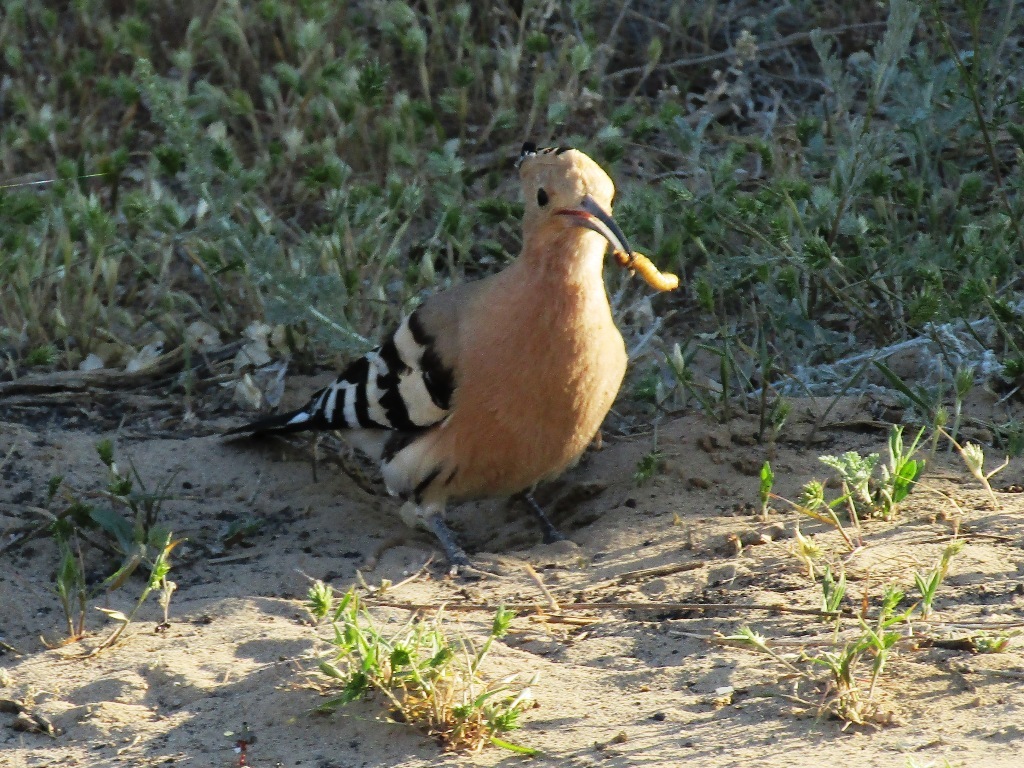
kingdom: Animalia
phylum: Chordata
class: Aves
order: Bucerotiformes
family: Upupidae
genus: Upupa
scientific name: Upupa epops
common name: Eurasian hoopoe
